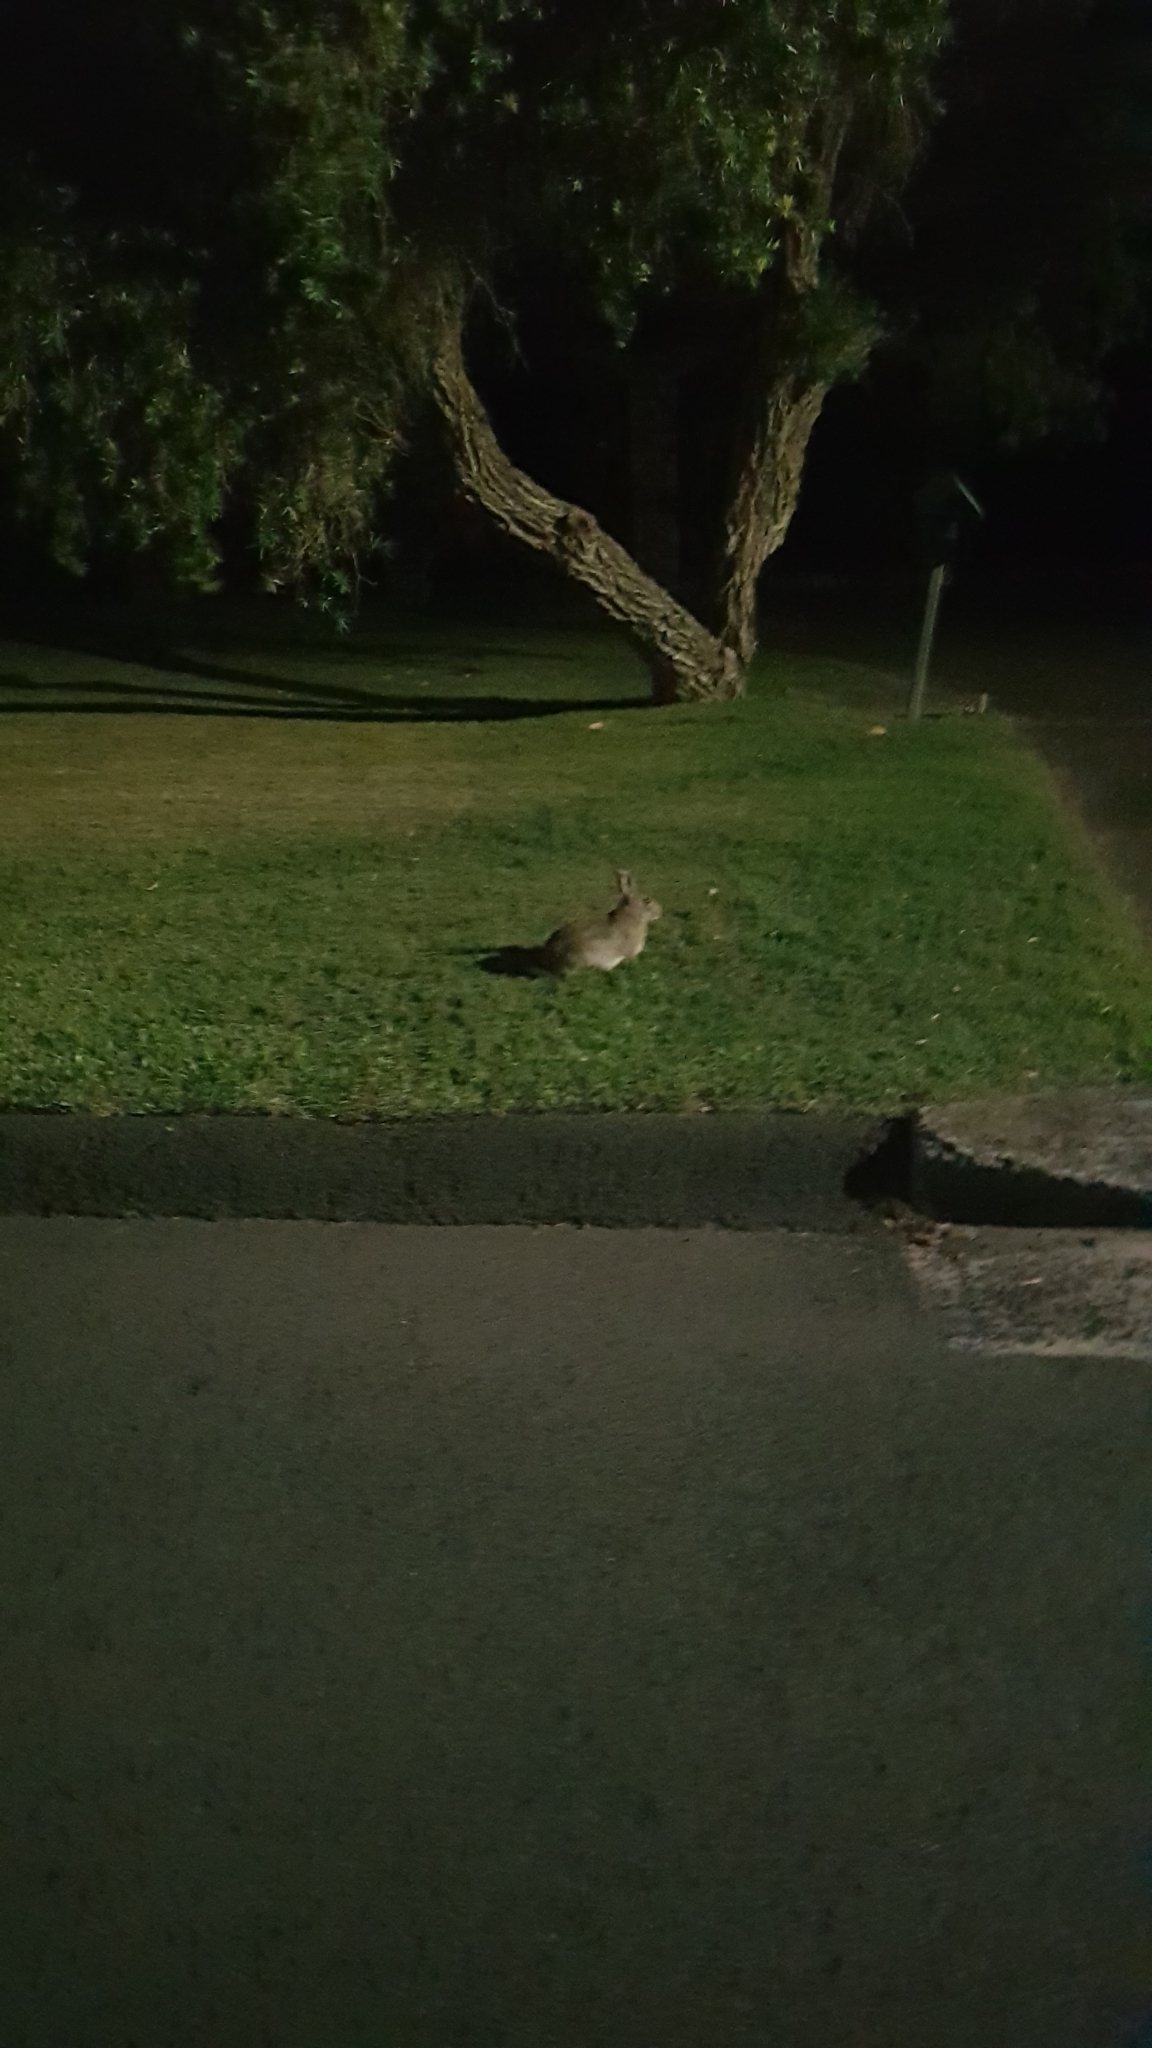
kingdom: Animalia
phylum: Chordata
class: Mammalia
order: Lagomorpha
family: Leporidae
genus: Oryctolagus
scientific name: Oryctolagus cuniculus
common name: European rabbit
